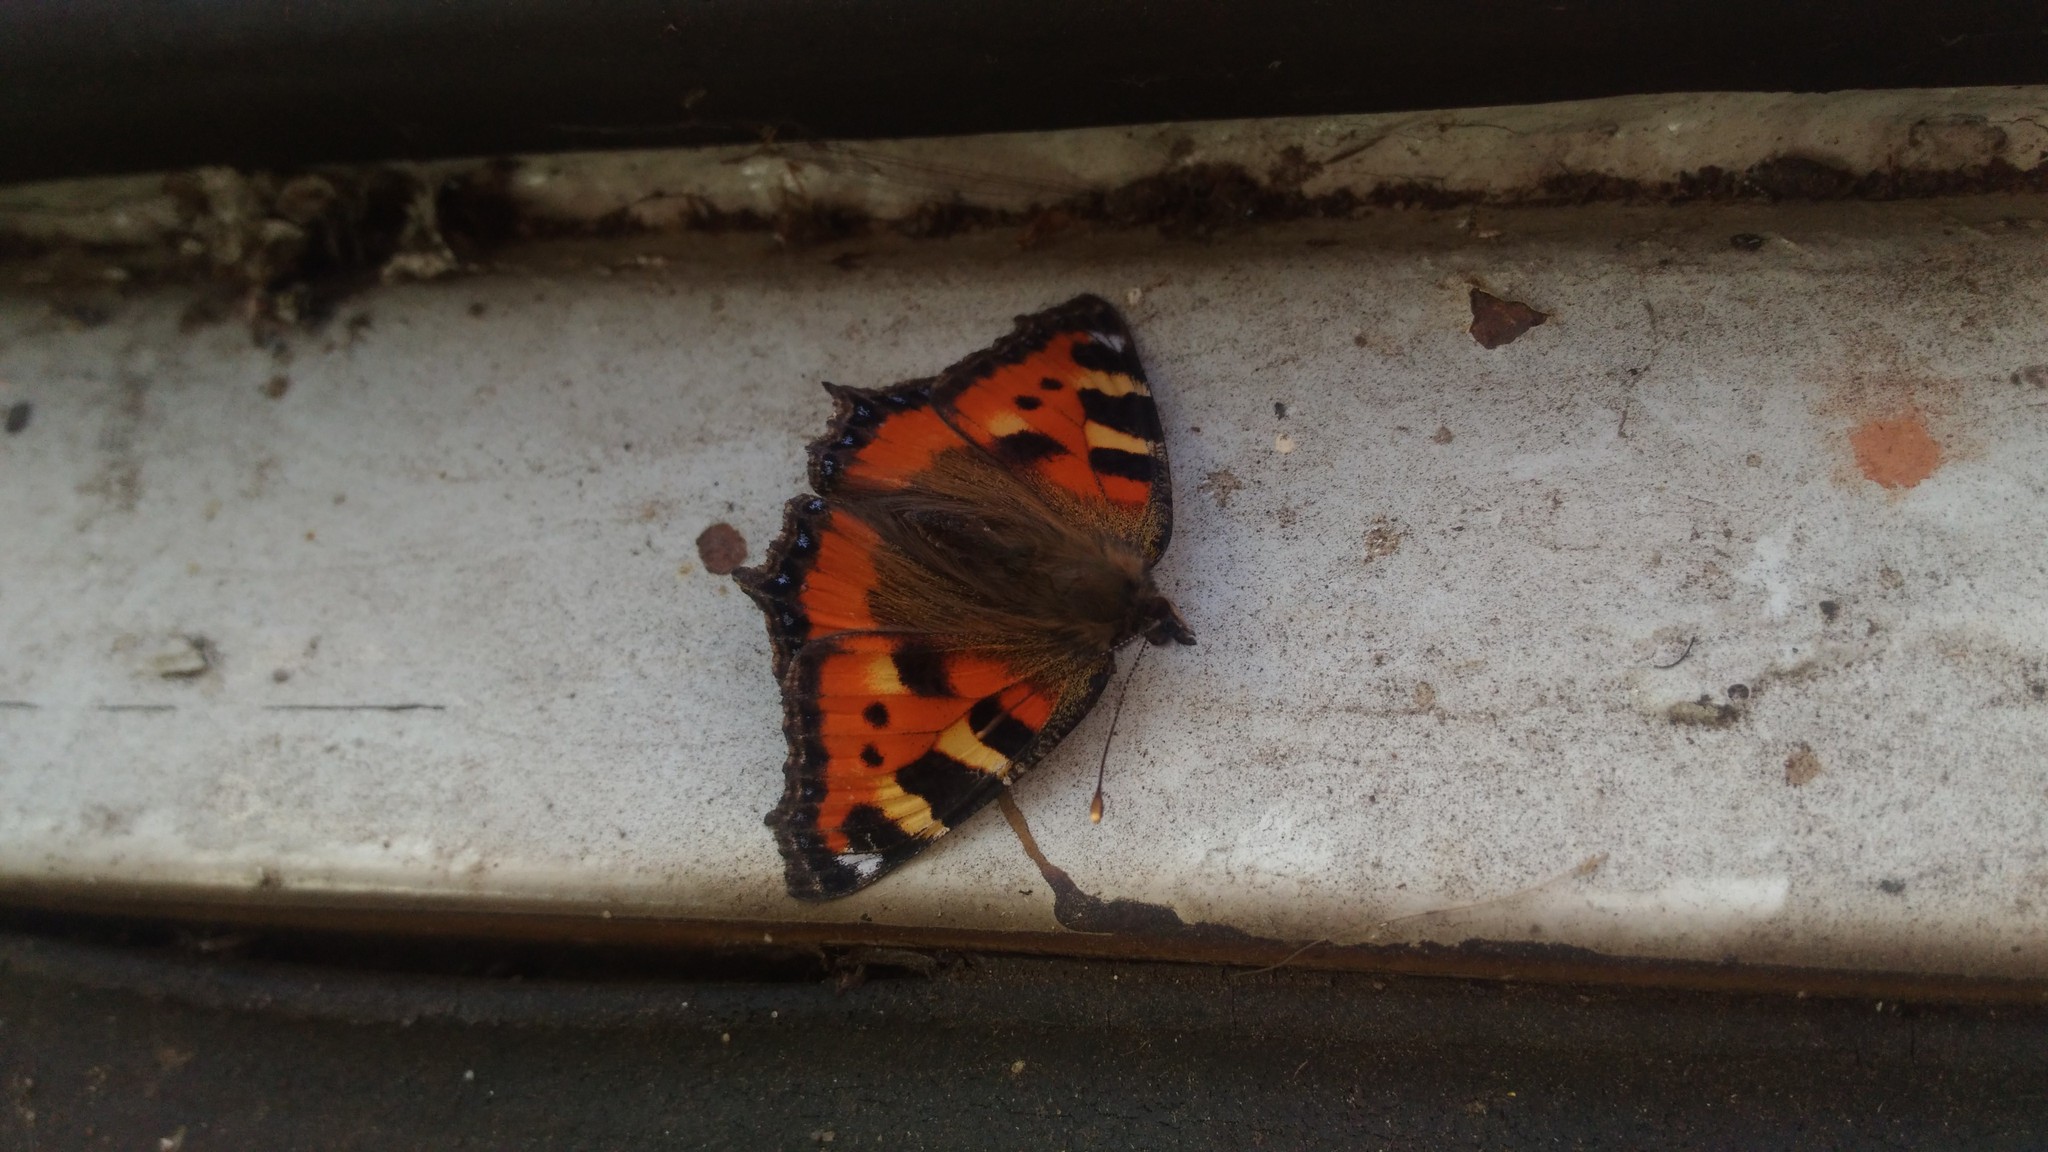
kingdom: Animalia
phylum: Arthropoda
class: Insecta
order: Lepidoptera
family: Nymphalidae
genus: Aglais
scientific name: Aglais urticae
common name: Small tortoiseshell
